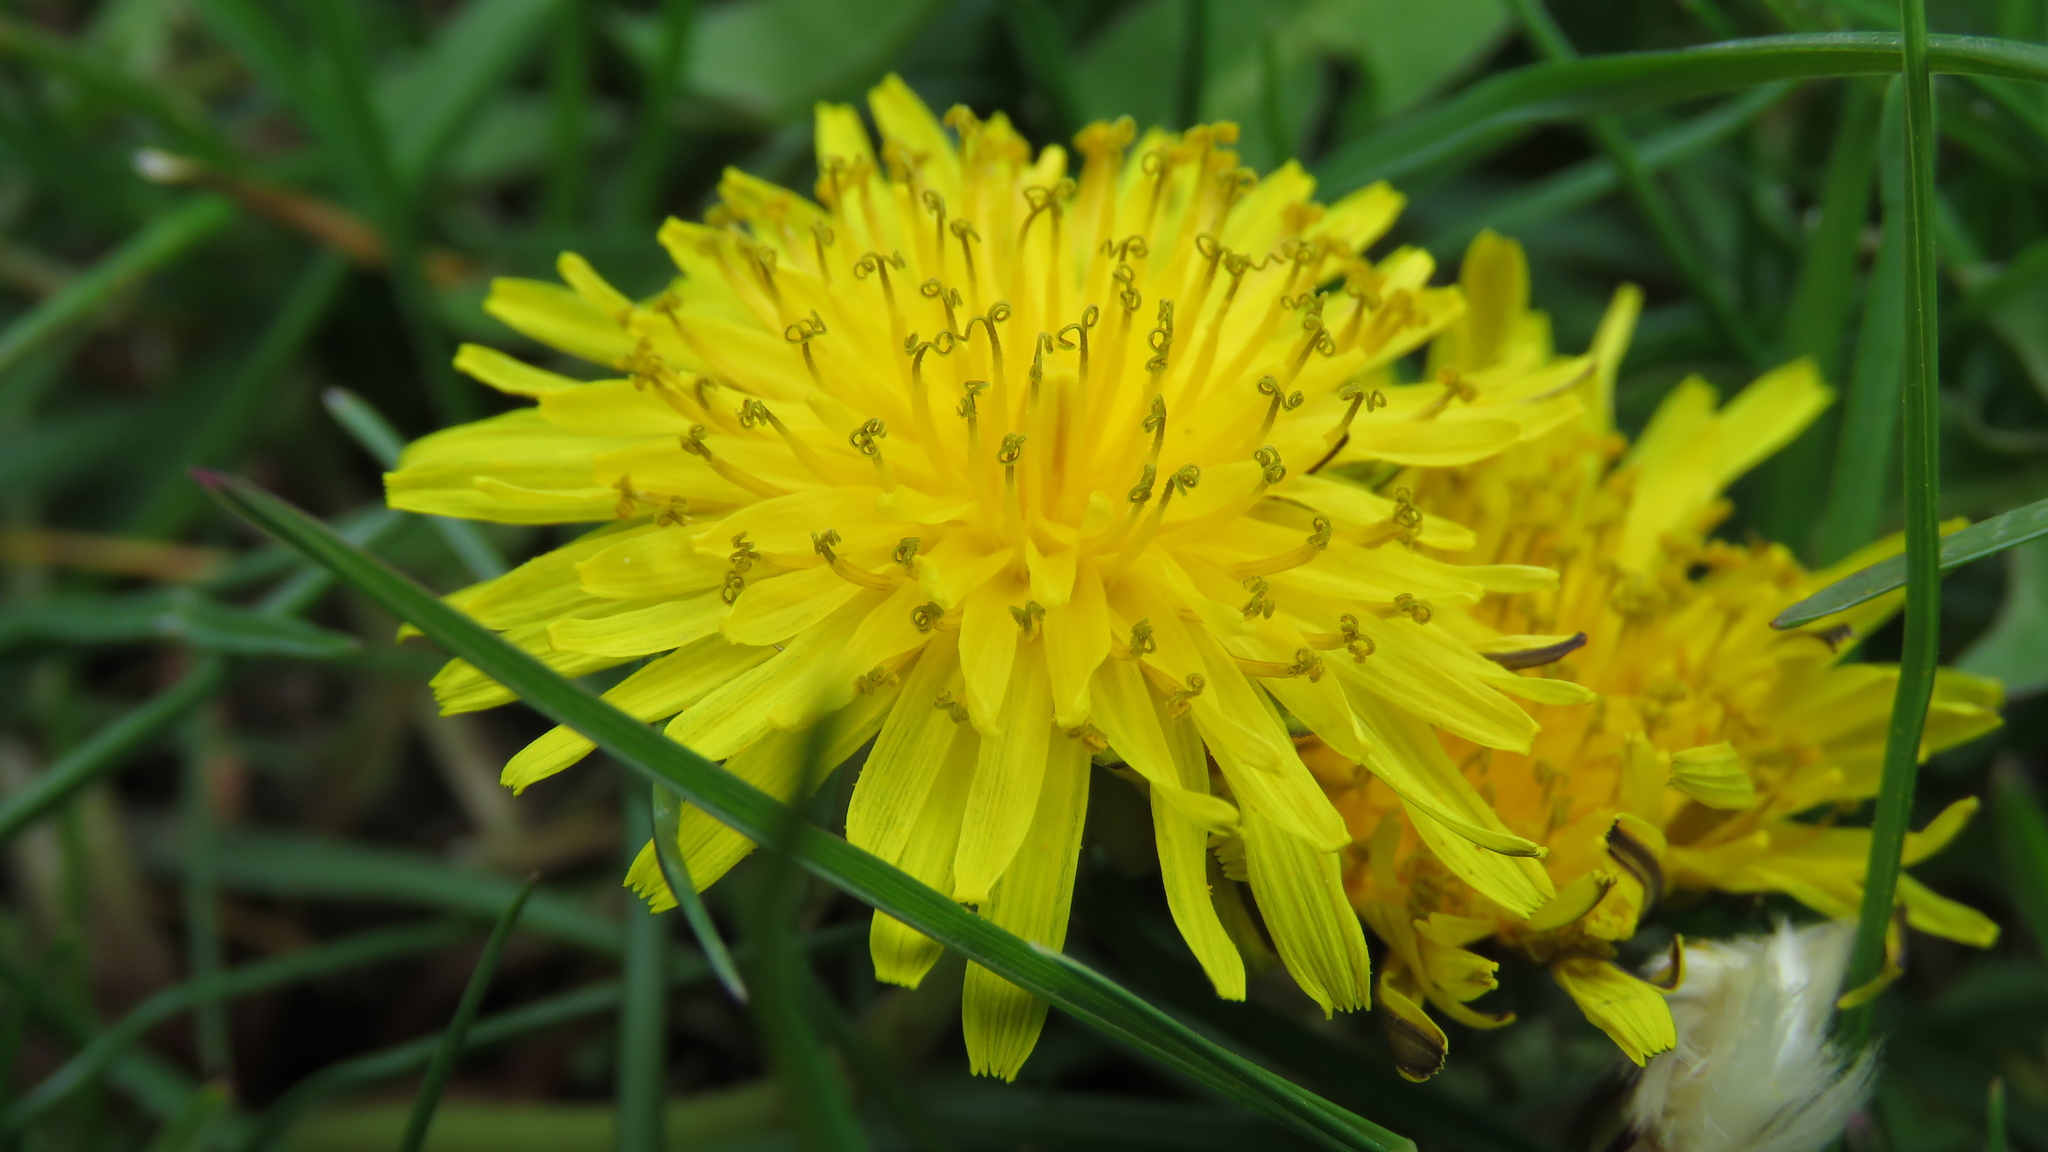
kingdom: Plantae
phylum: Tracheophyta
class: Magnoliopsida
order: Asterales
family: Asteraceae
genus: Taraxacum
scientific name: Taraxacum officinale
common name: Common dandelion
